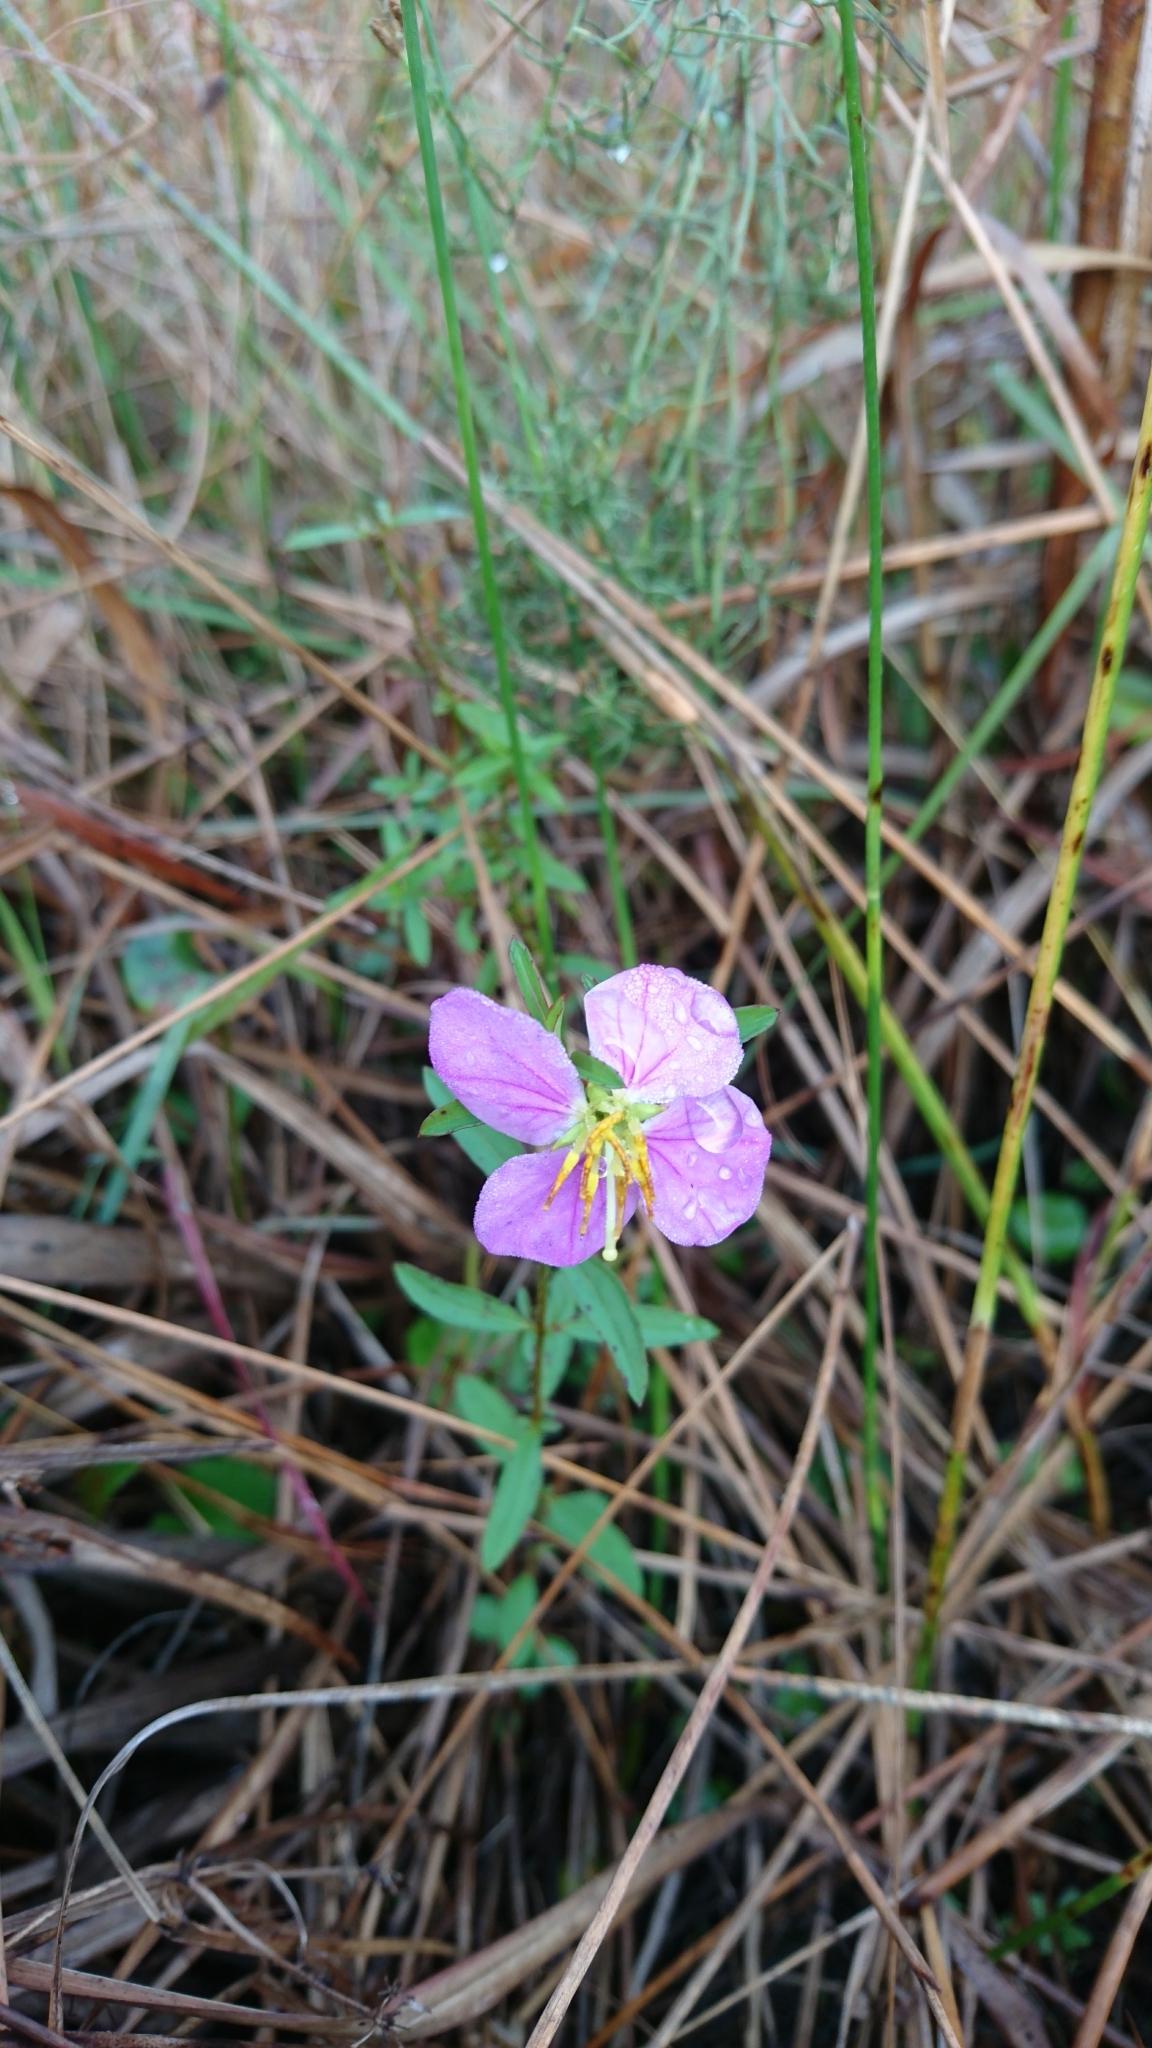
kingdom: Plantae
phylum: Tracheophyta
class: Magnoliopsida
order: Myrtales
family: Melastomataceae
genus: Rhexia
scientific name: Rhexia mariana
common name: Dull meadow-pitcher
